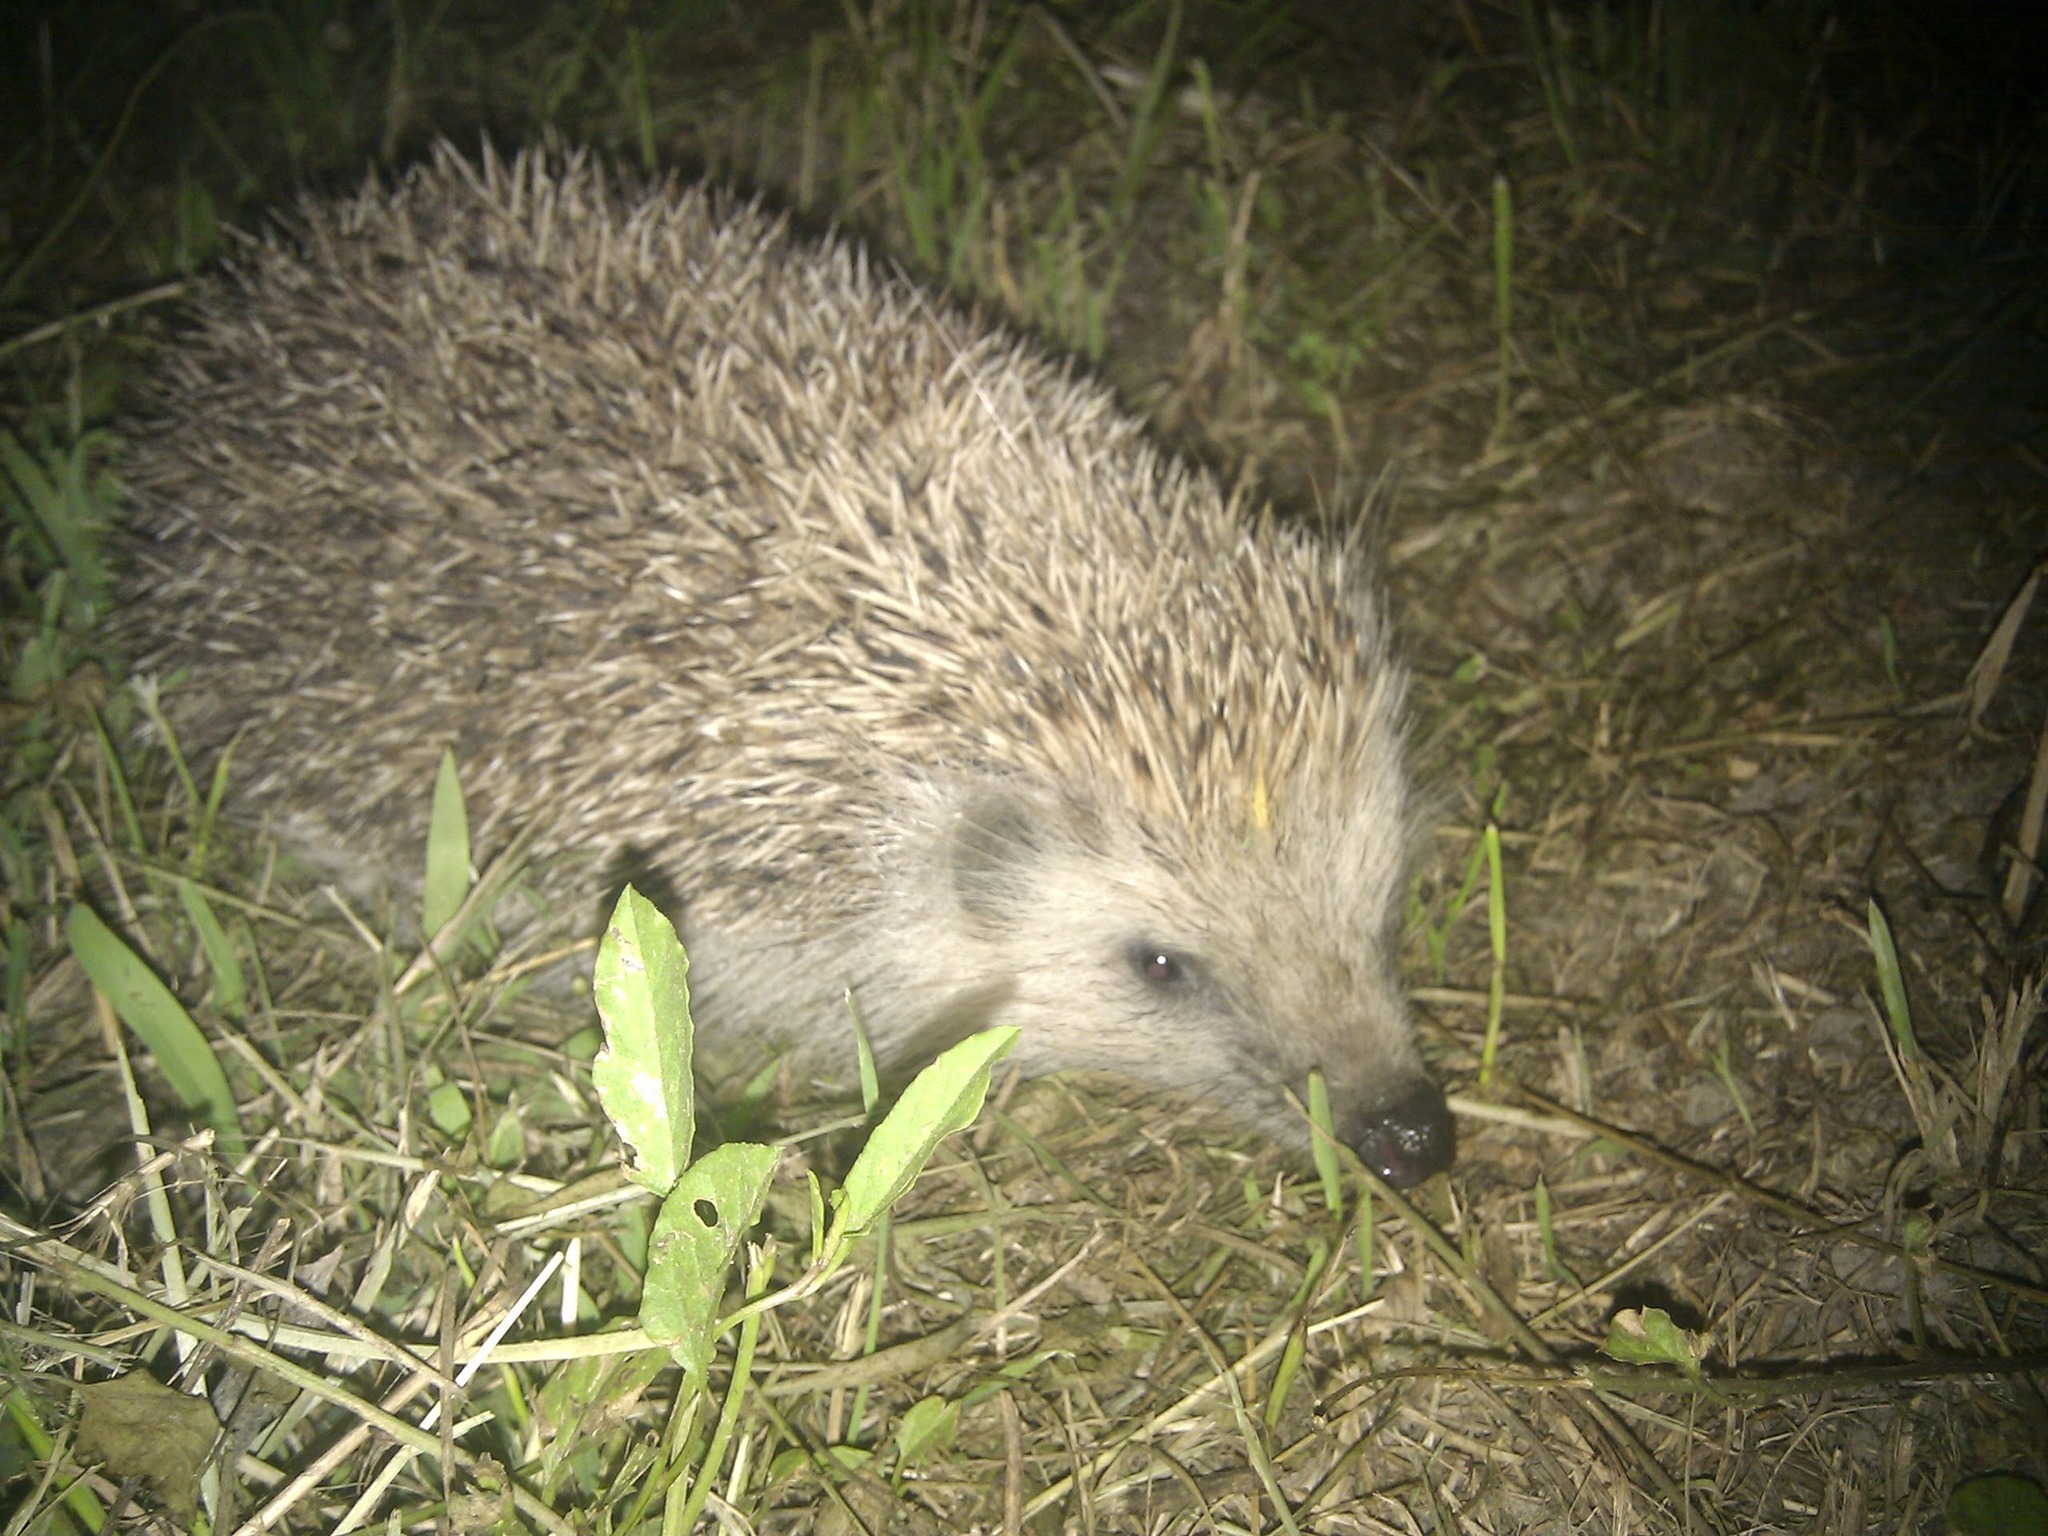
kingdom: Animalia
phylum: Chordata
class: Mammalia
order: Erinaceomorpha
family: Erinaceidae
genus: Erinaceus
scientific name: Erinaceus roumanicus
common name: Northern white-breasted hedgehog
